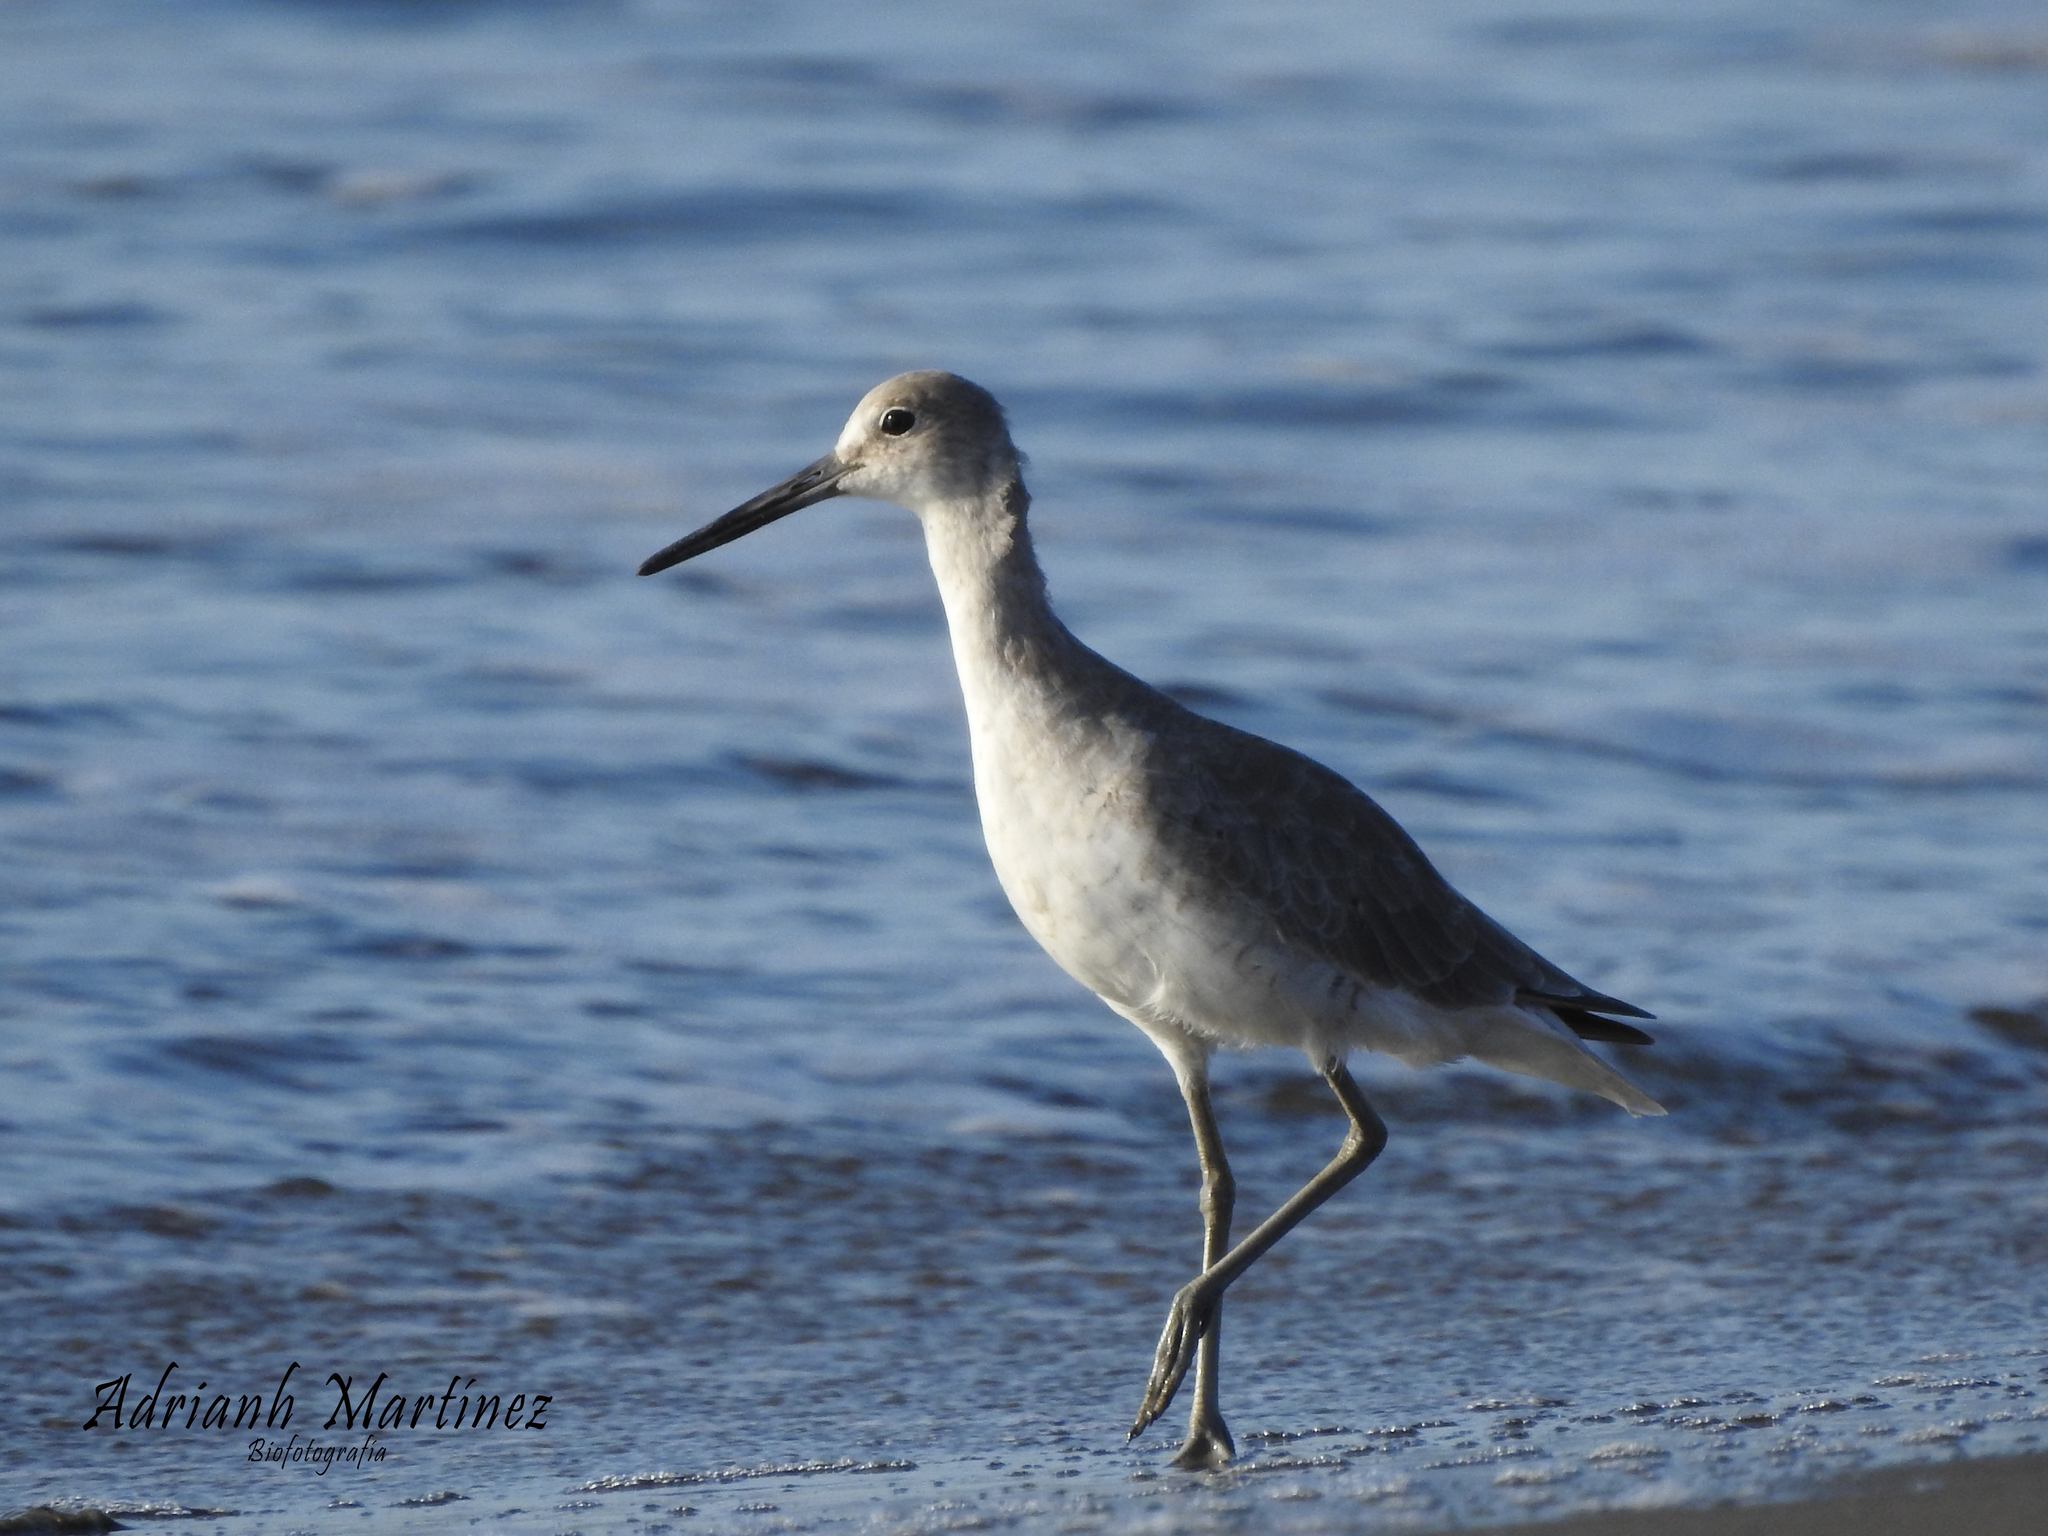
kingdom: Animalia
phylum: Chordata
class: Aves
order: Charadriiformes
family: Scolopacidae
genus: Tringa
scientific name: Tringa semipalmata
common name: Willet
